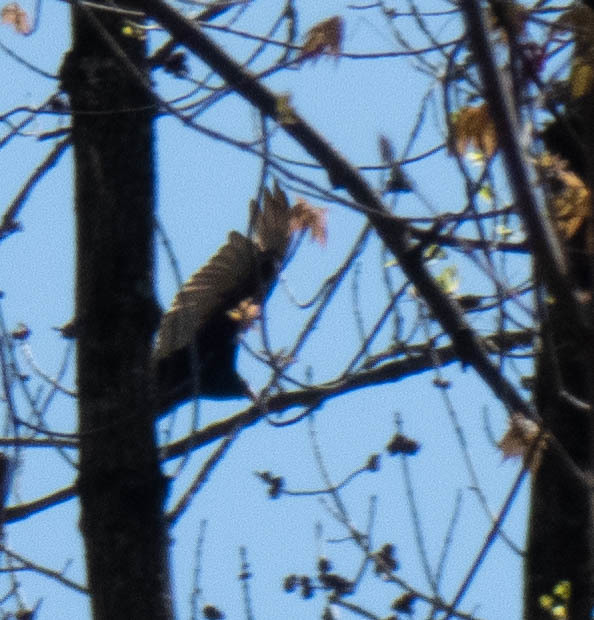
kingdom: Animalia
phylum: Chordata
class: Aves
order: Accipitriformes
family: Cathartidae
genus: Cathartes
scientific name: Cathartes aura
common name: Turkey vulture
